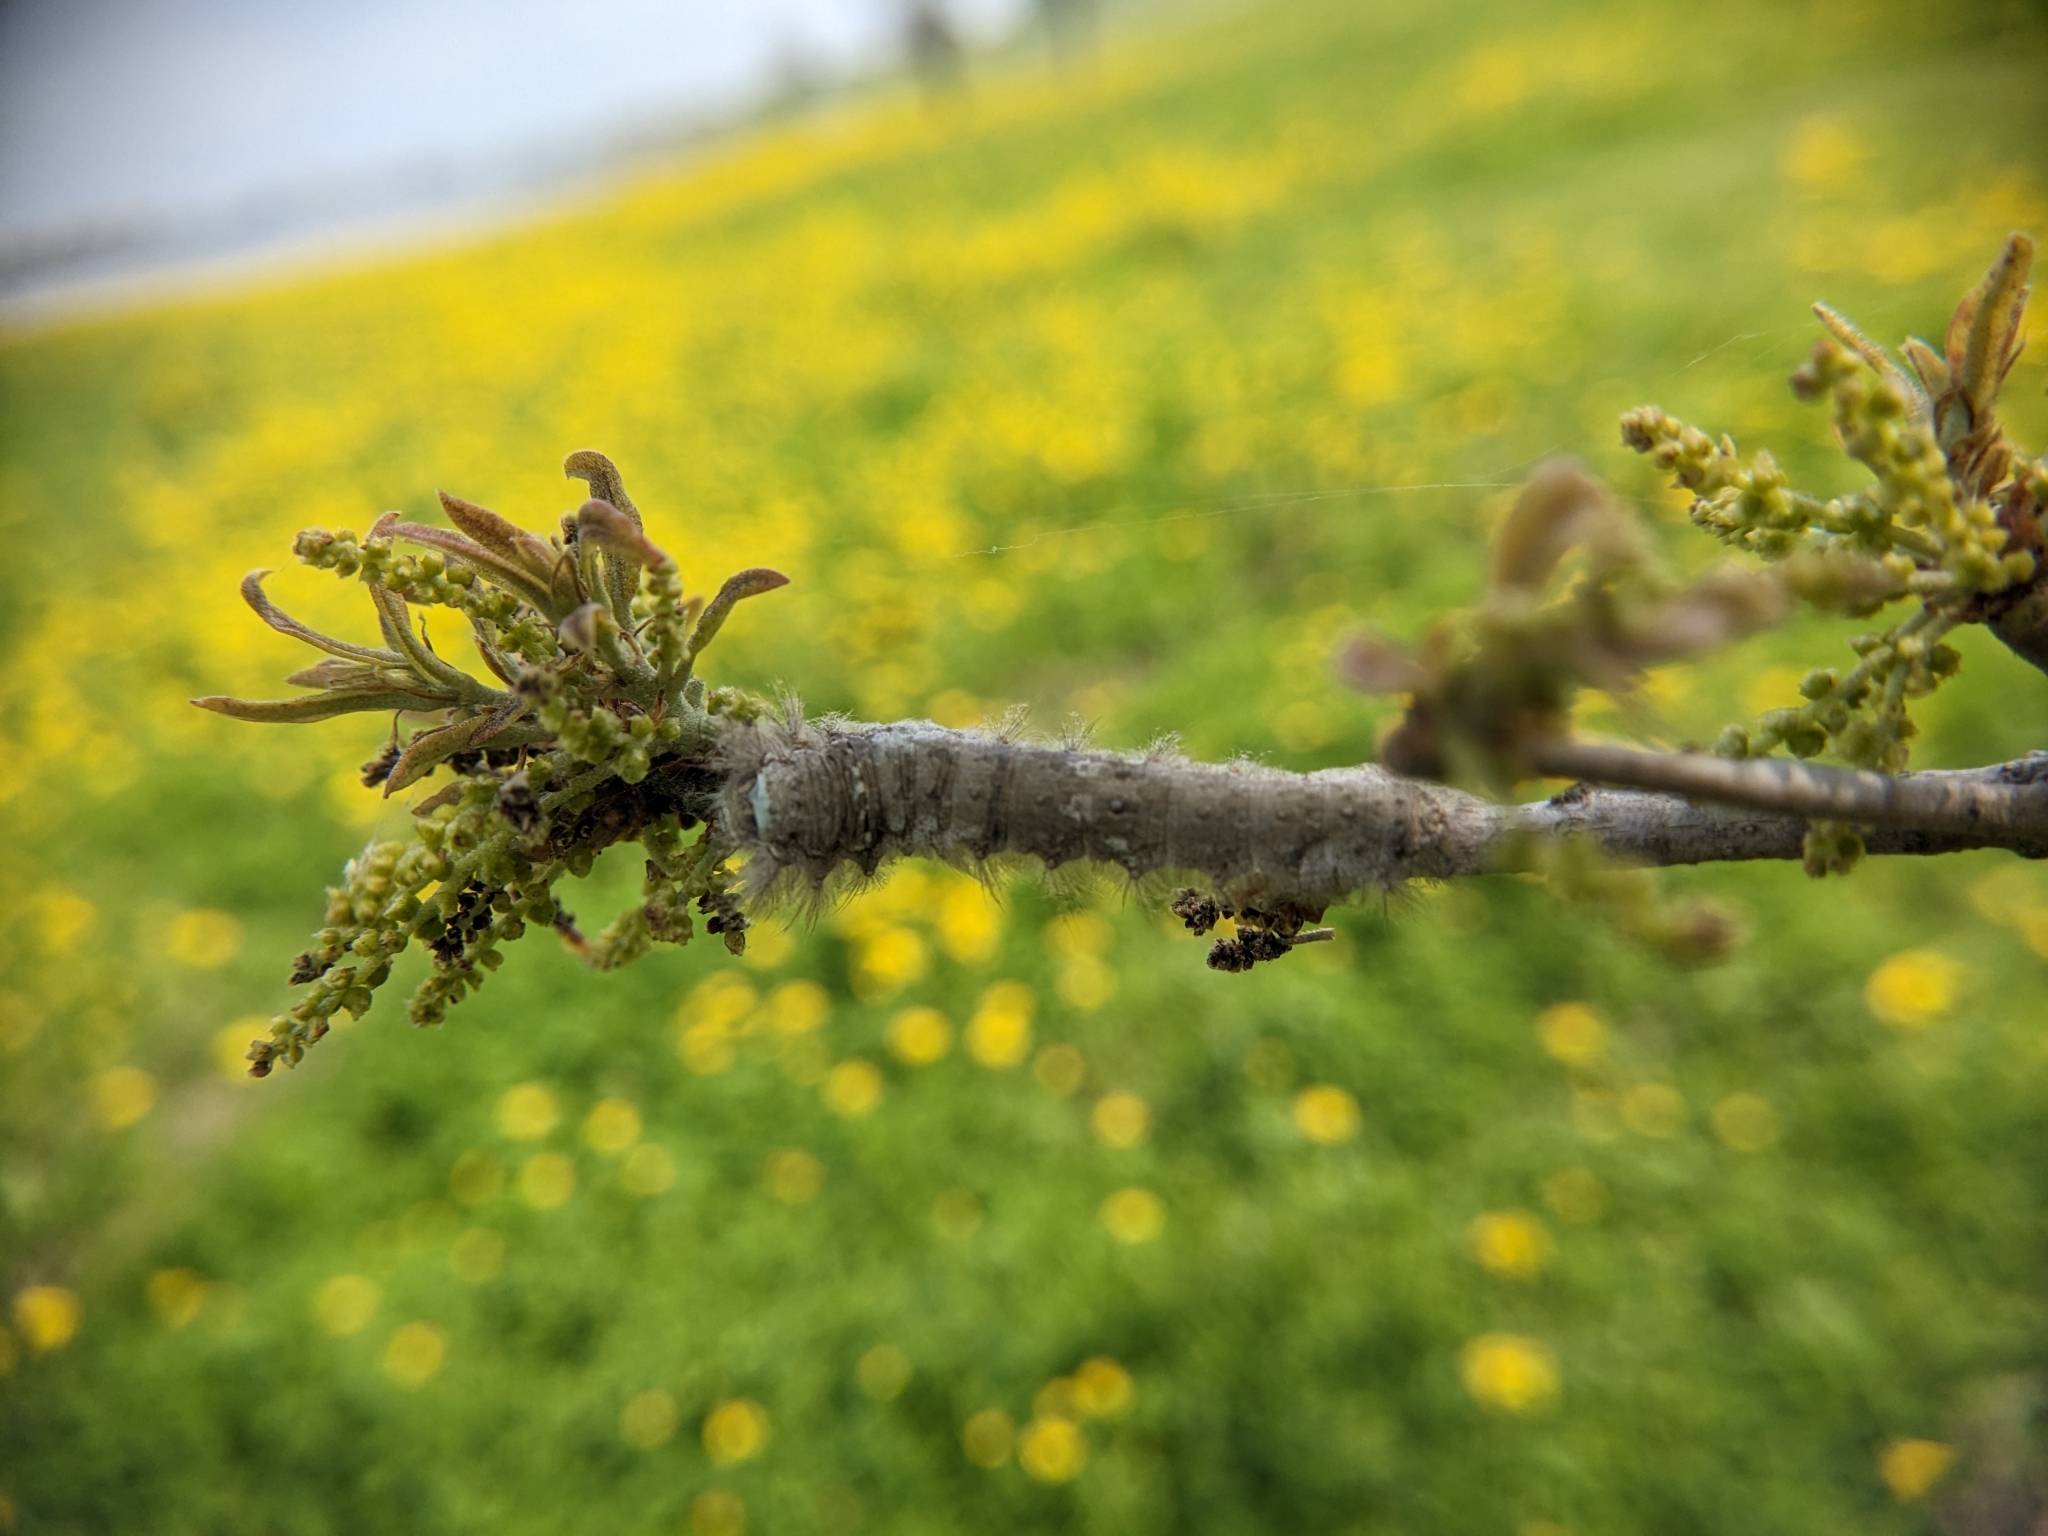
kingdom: Animalia
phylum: Arthropoda
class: Insecta
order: Lepidoptera
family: Lasiocampidae
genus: Artace
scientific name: Artace cribrarius
